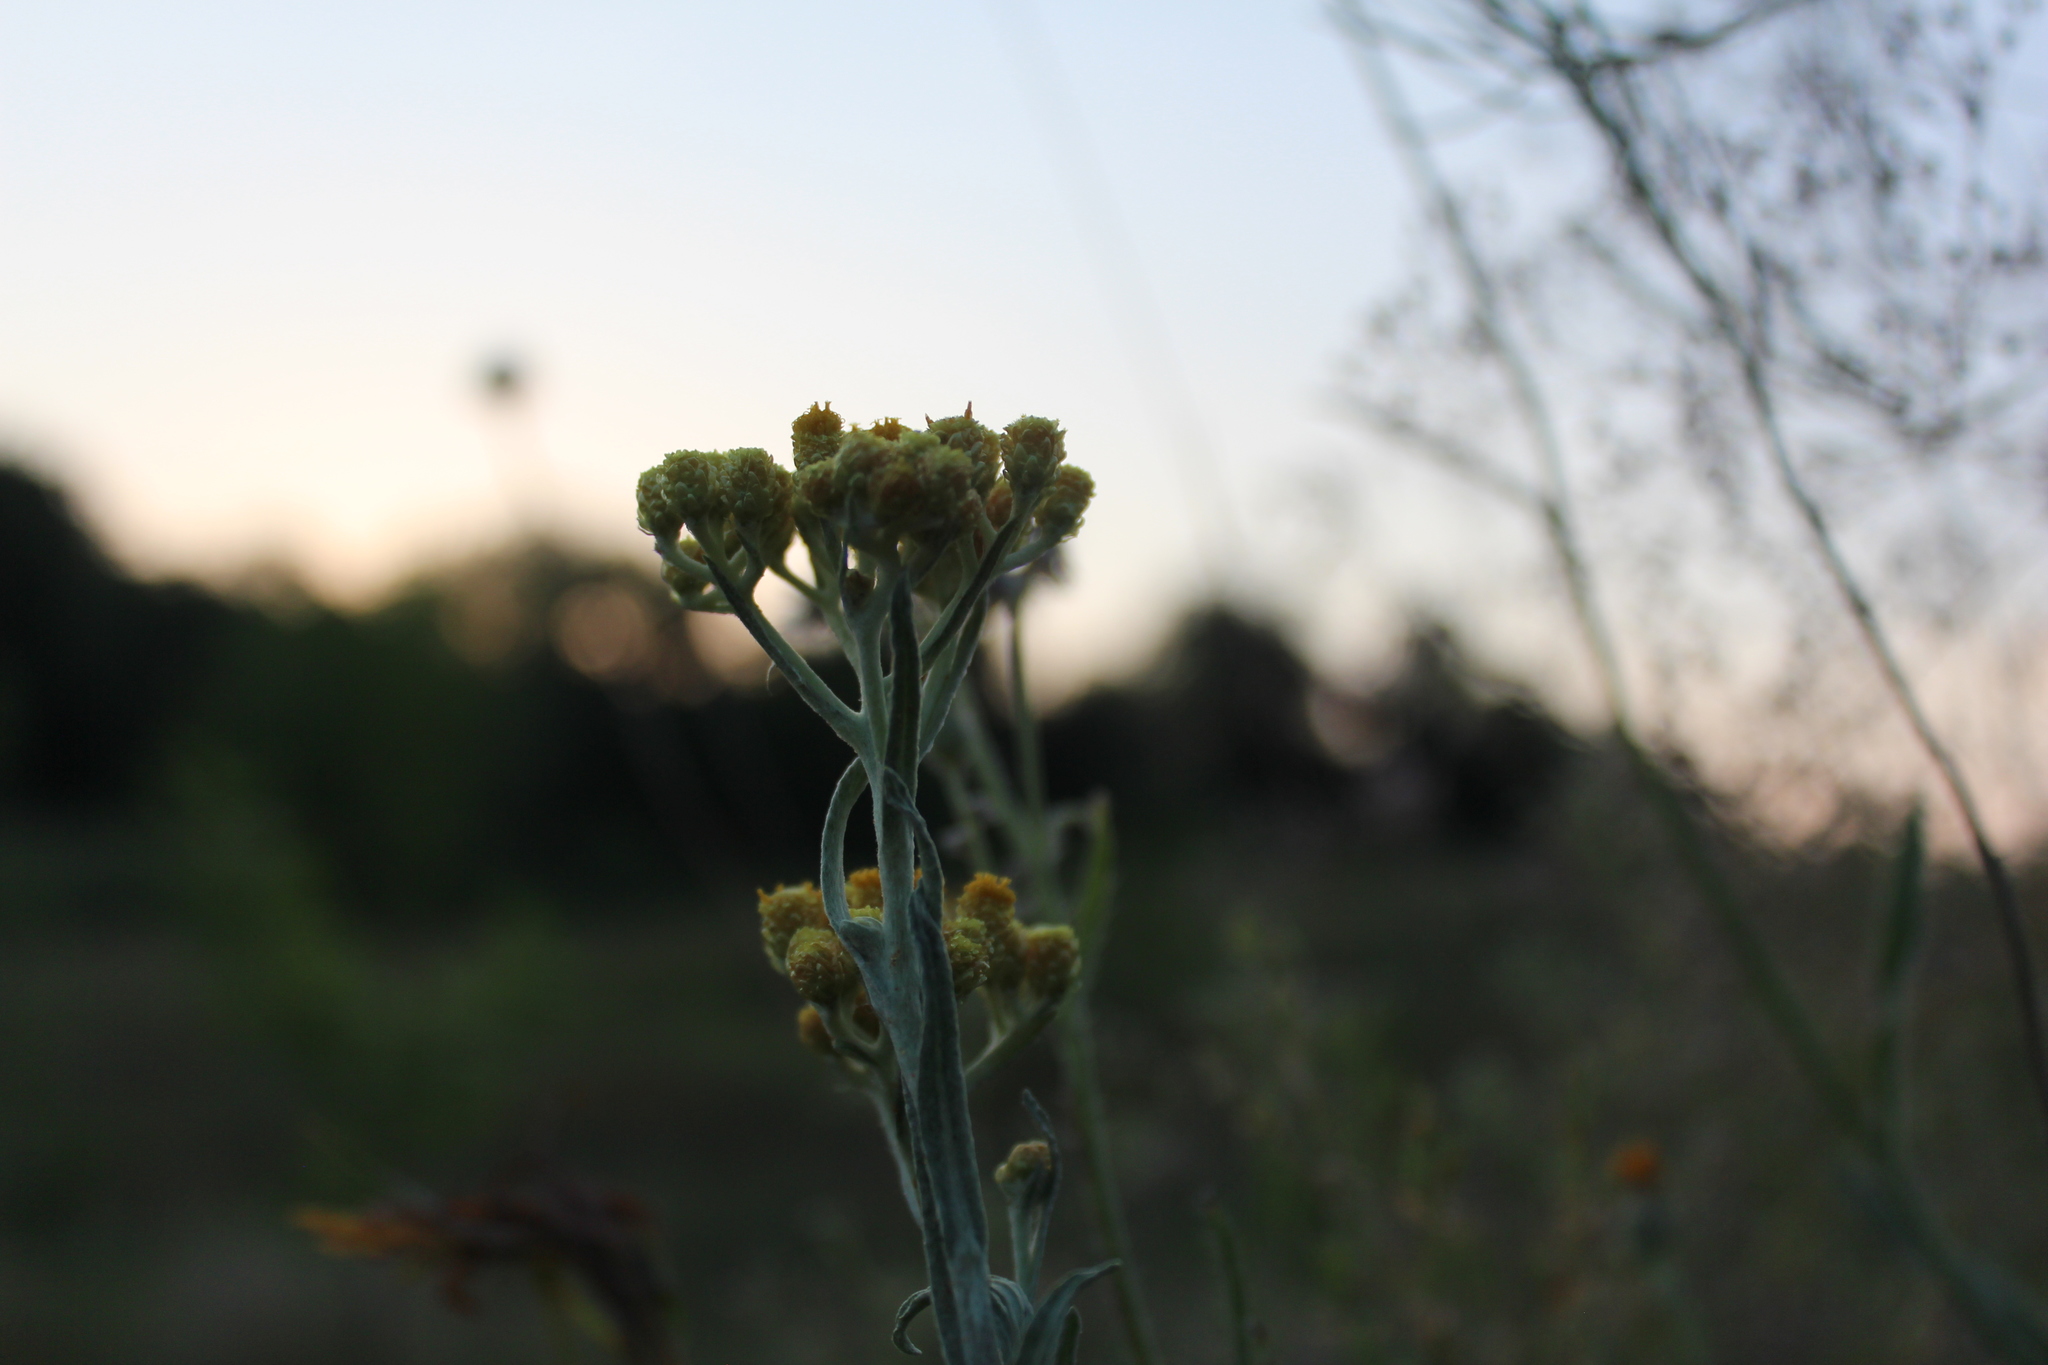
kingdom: Plantae
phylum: Tracheophyta
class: Magnoliopsida
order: Asterales
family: Asteraceae
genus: Helichrysum
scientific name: Helichrysum arenarium
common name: Strawflower
